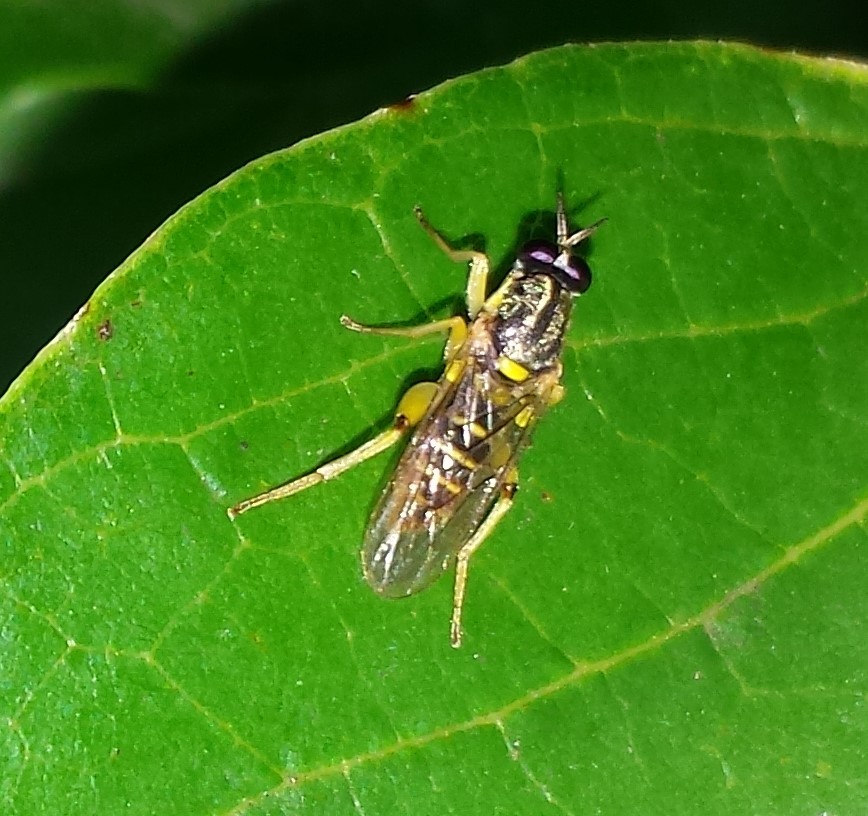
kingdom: Animalia
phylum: Arthropoda
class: Insecta
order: Diptera
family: Xylomyidae
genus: Solva
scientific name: Solva pallipes
